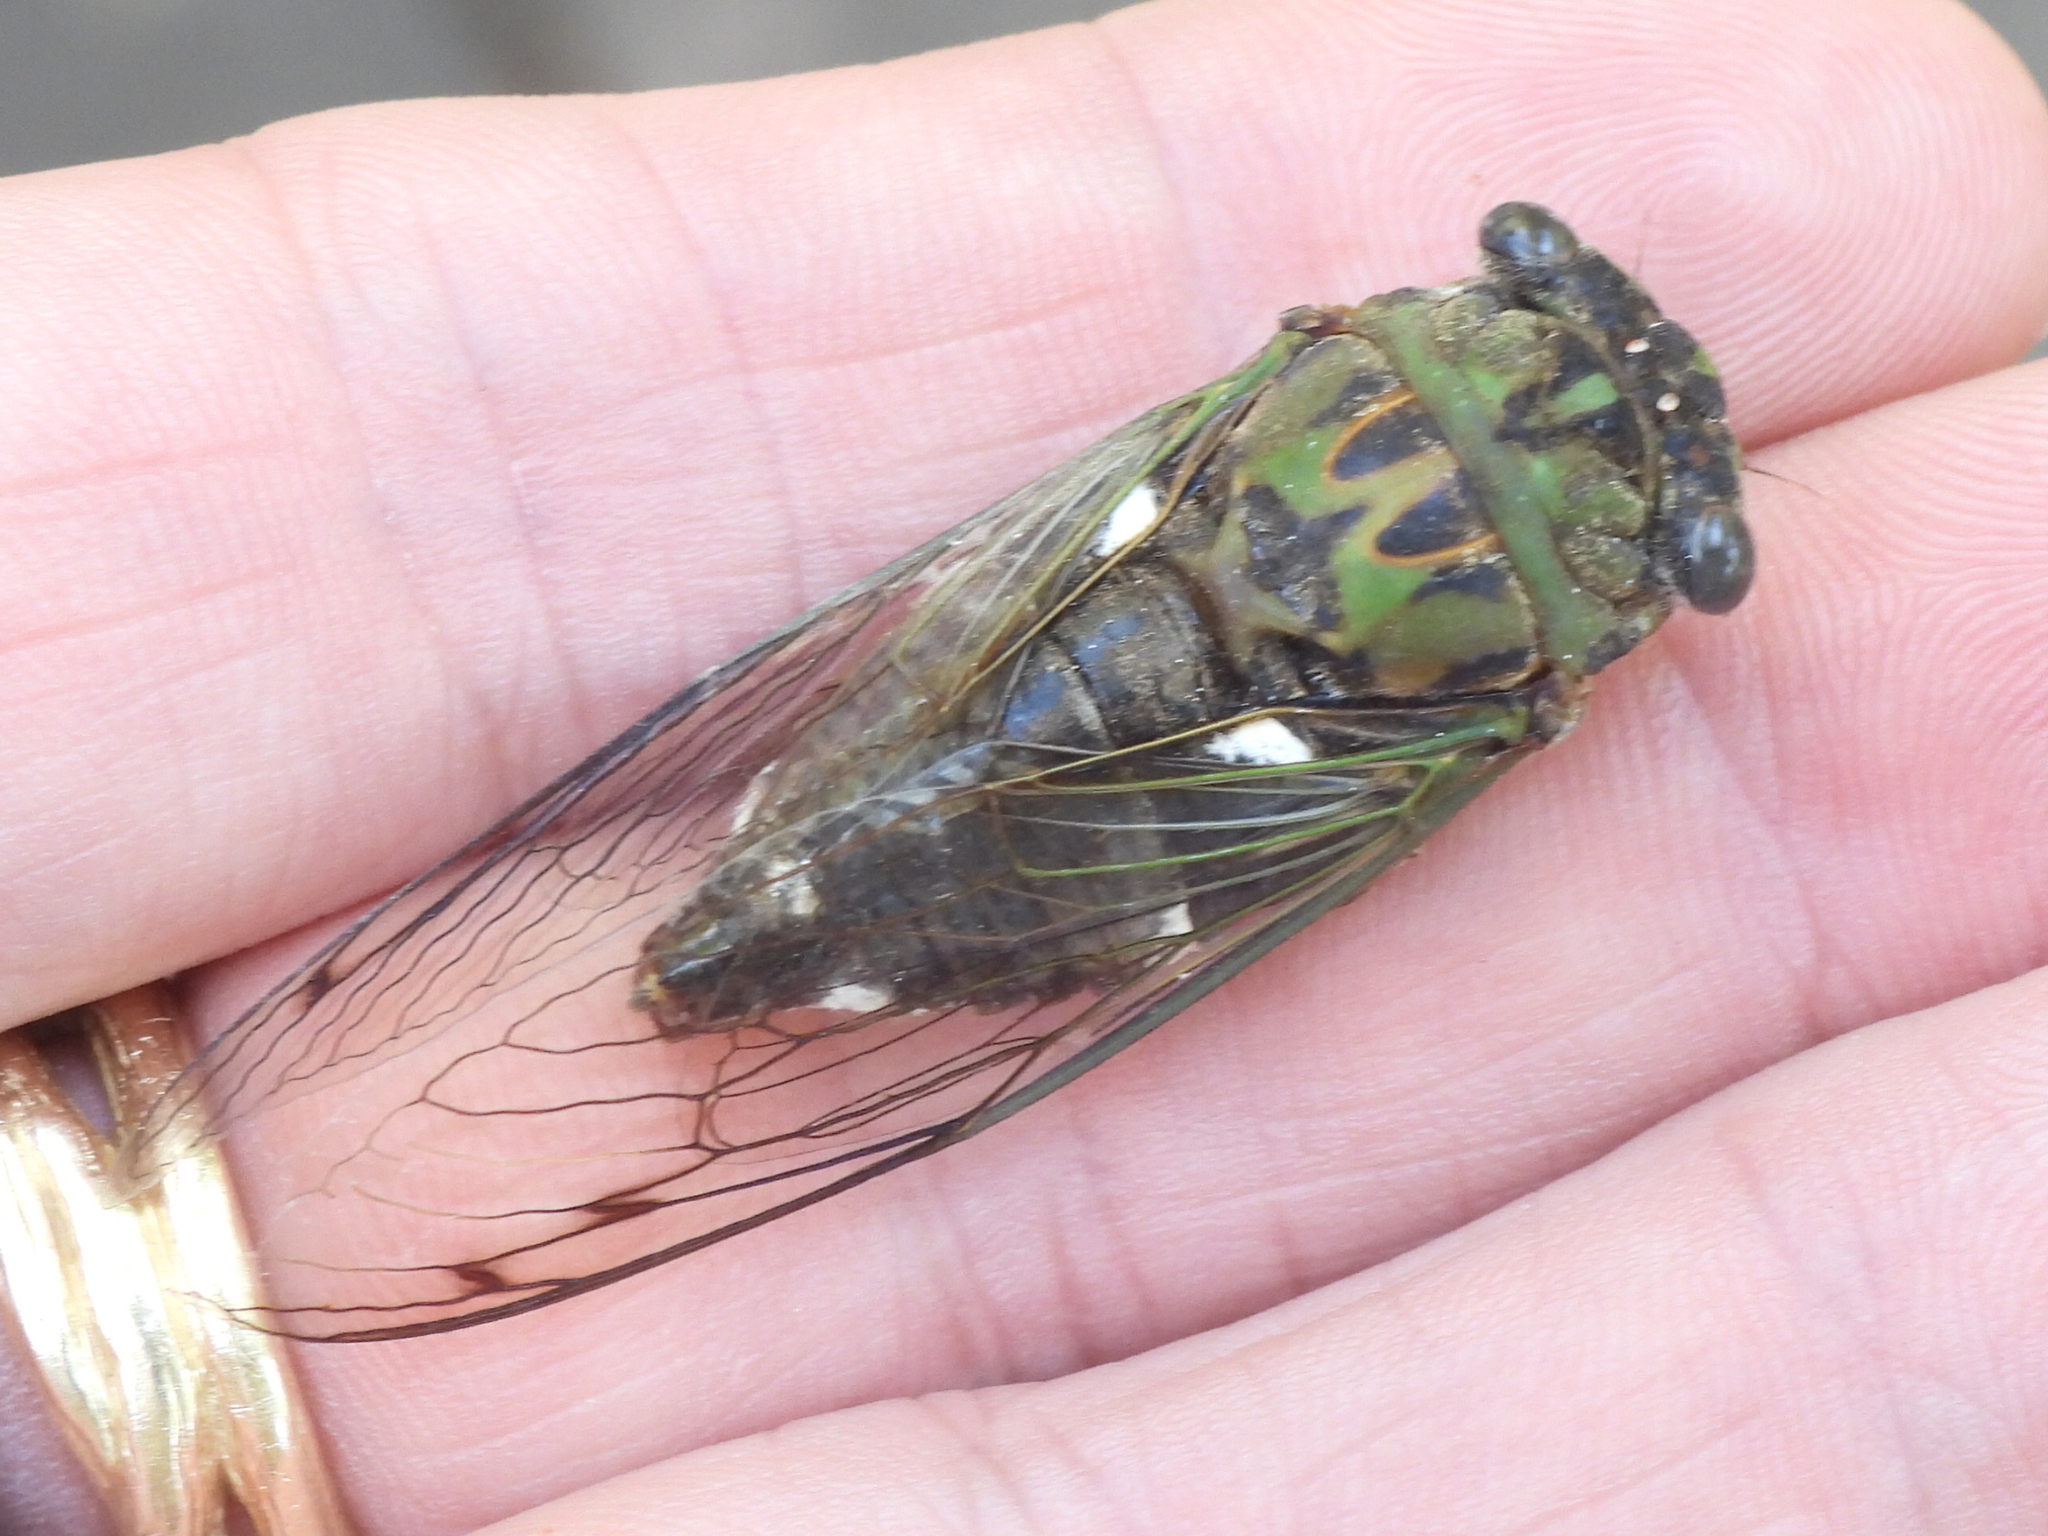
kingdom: Animalia
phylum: Arthropoda
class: Insecta
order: Hemiptera
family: Cicadidae
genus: Neotibicen
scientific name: Neotibicen pruinosus
